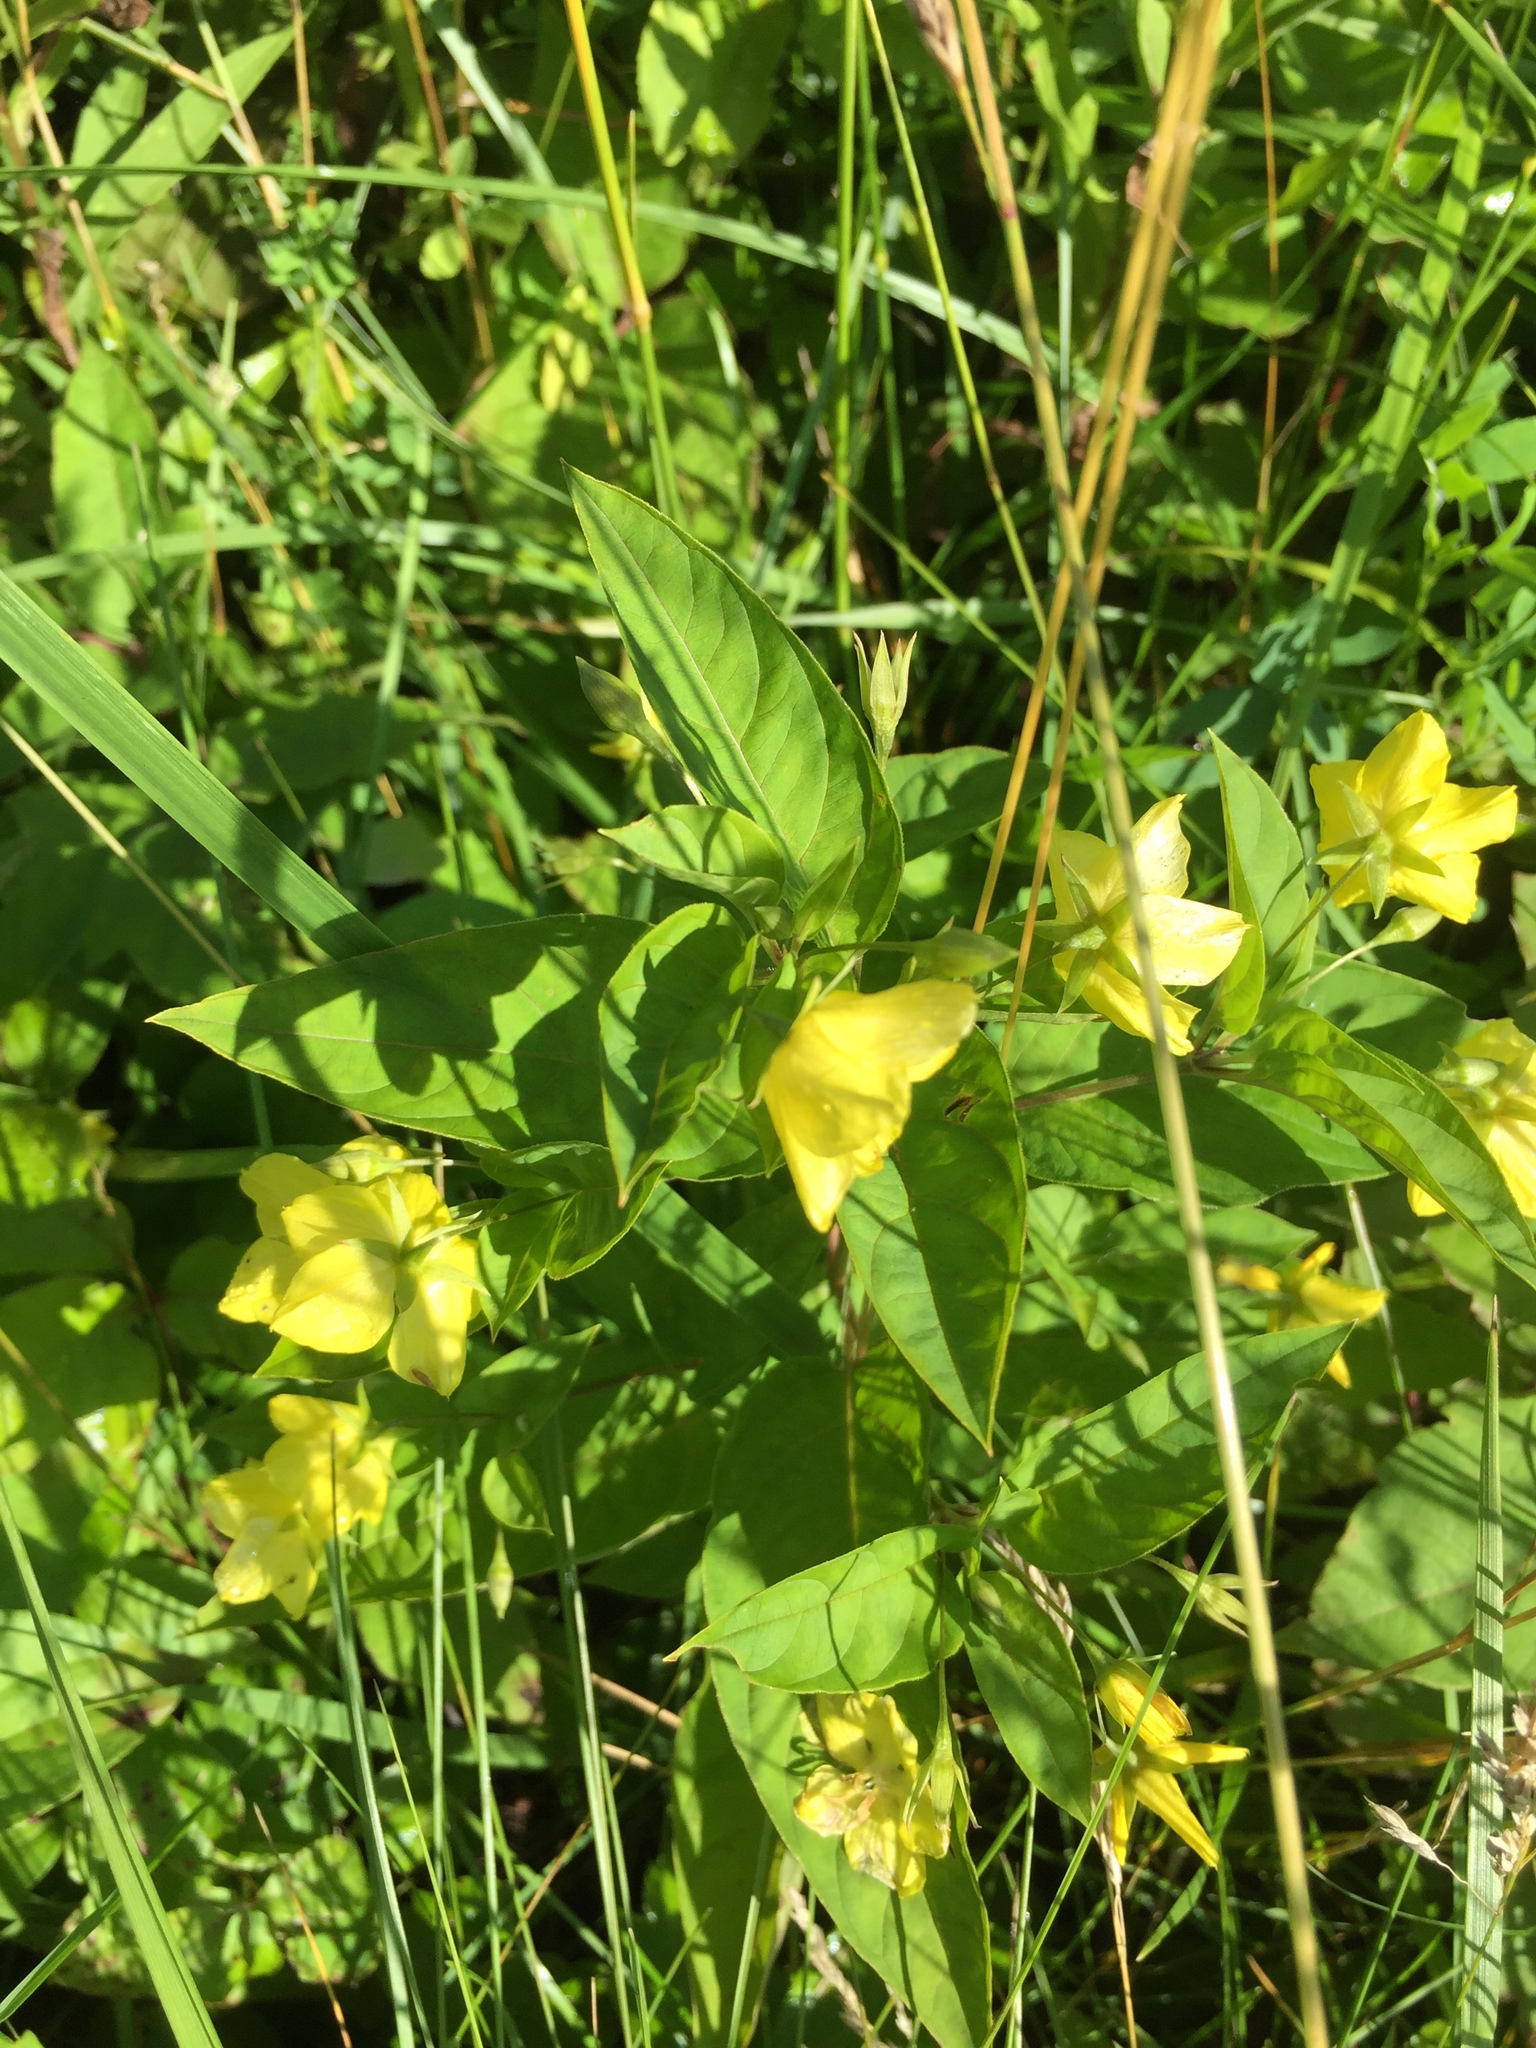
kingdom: Plantae
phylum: Tracheophyta
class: Magnoliopsida
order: Ericales
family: Primulaceae
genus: Lysimachia
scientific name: Lysimachia ciliata
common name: Fringed loosestrife
